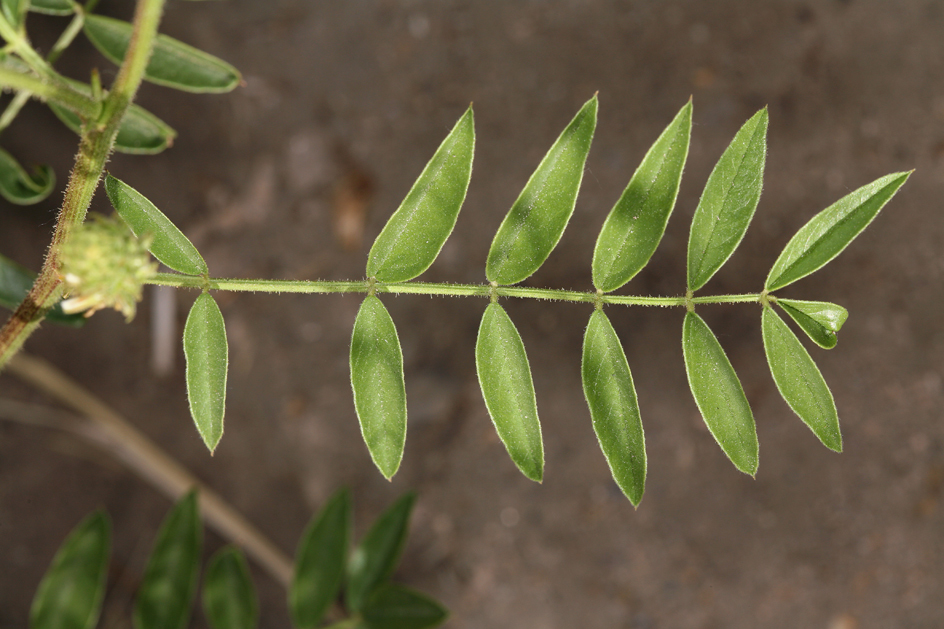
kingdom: Plantae
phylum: Tracheophyta
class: Magnoliopsida
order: Fabales
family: Fabaceae
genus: Glycyrrhiza
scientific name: Glycyrrhiza lepidota
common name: American liquorice
